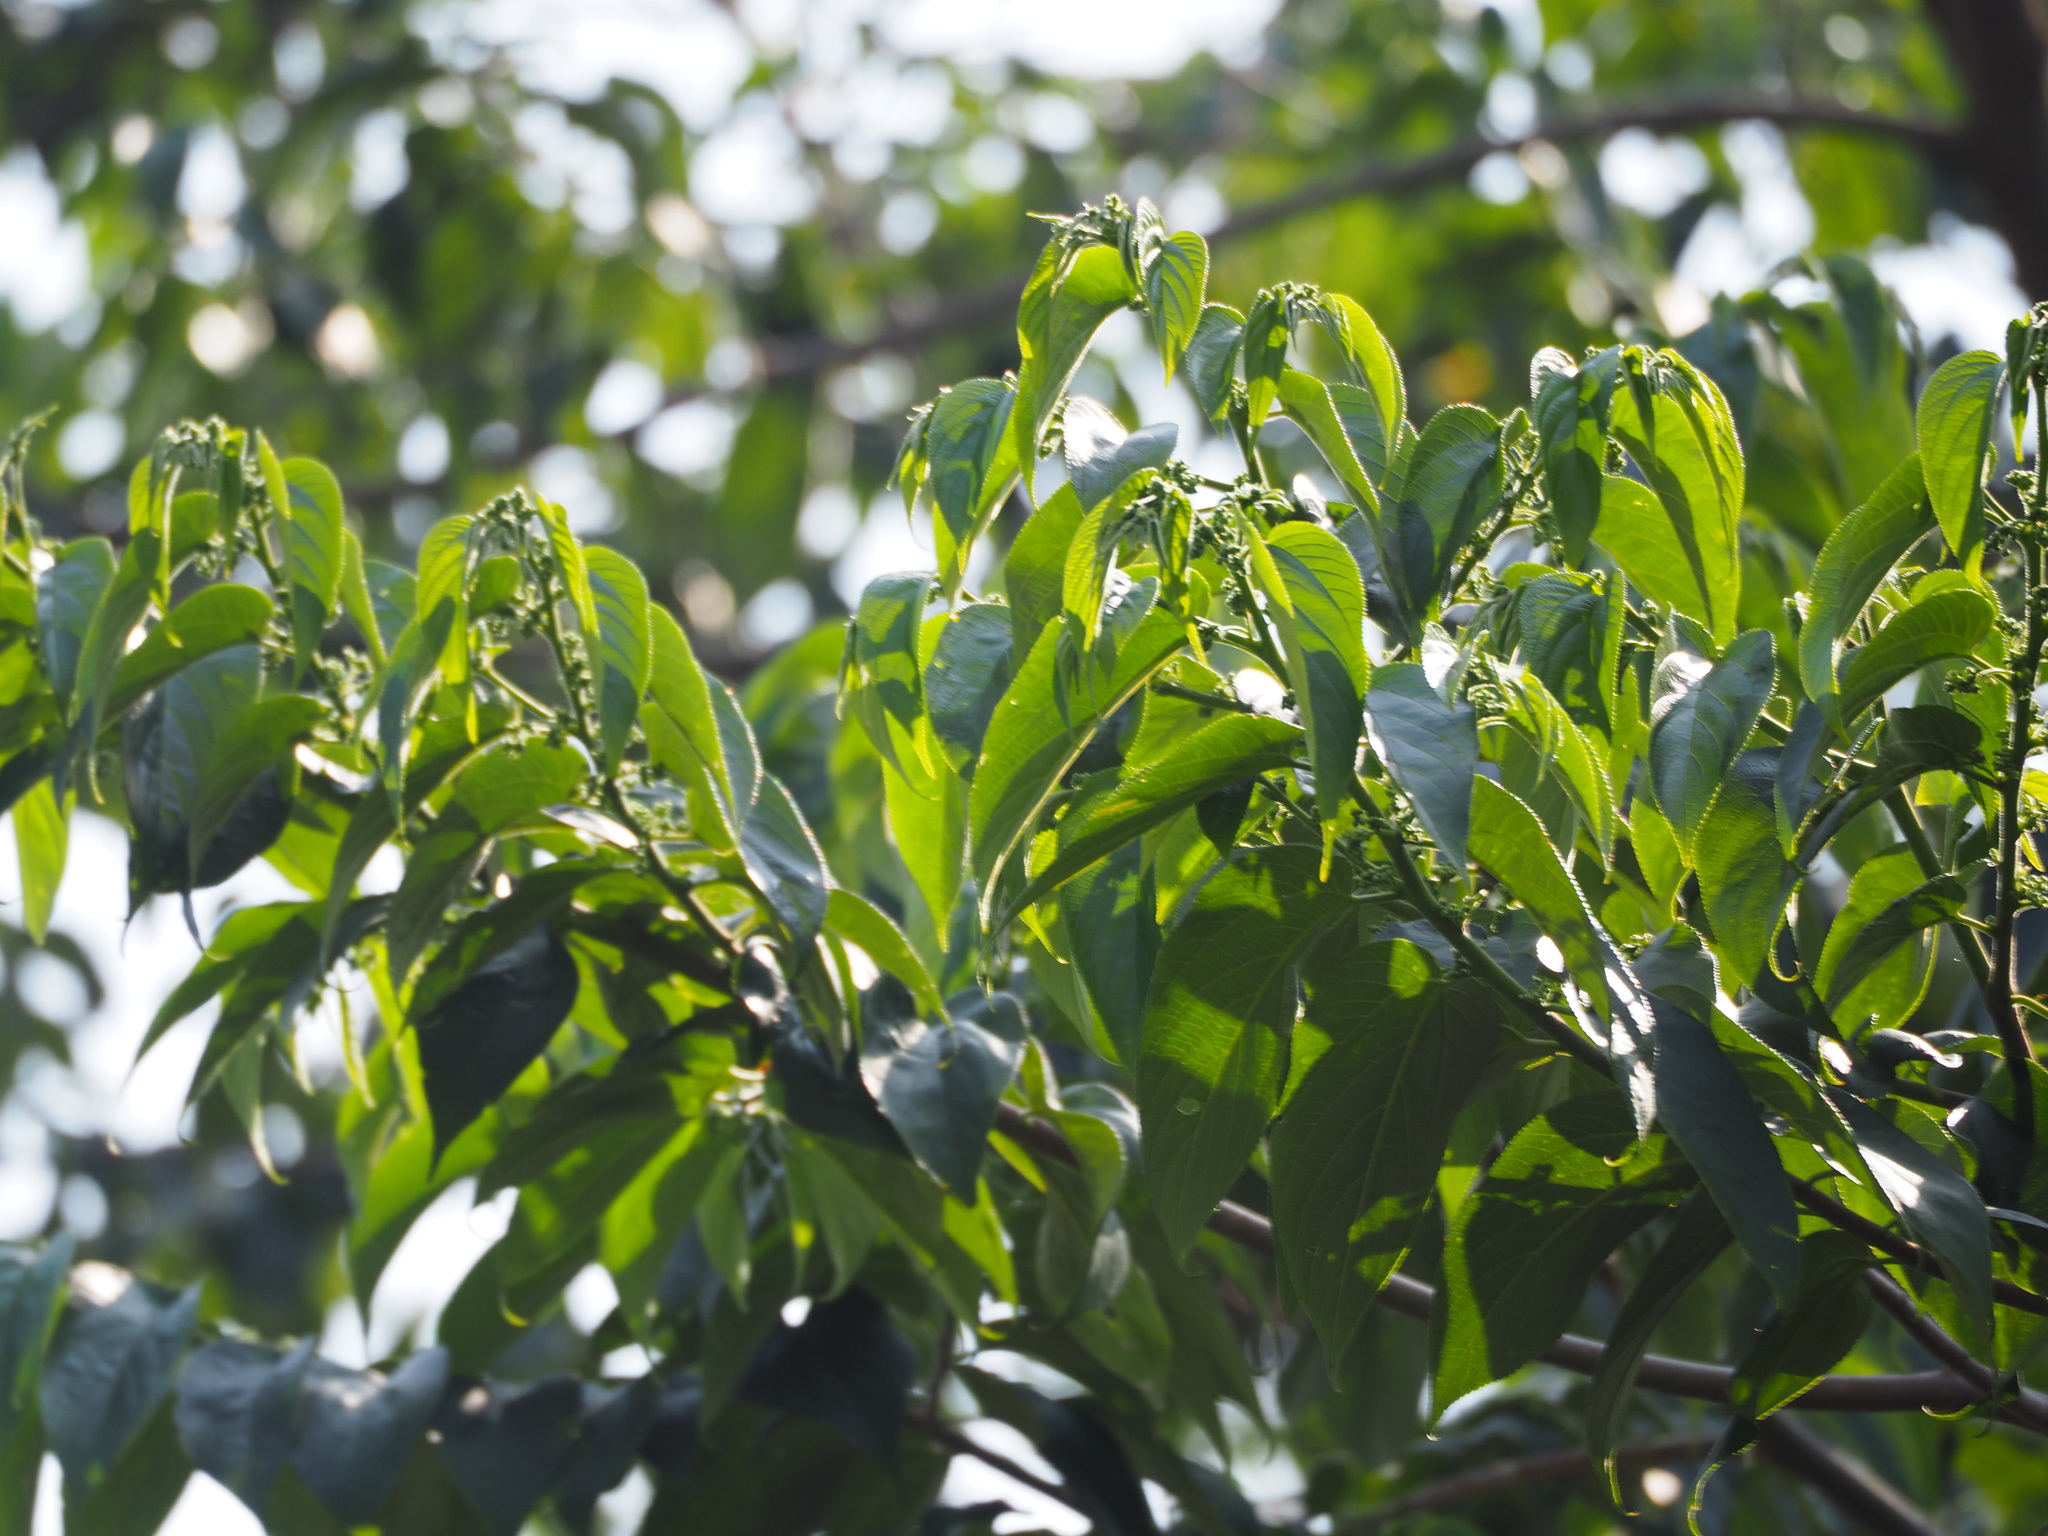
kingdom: Plantae
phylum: Tracheophyta
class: Magnoliopsida
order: Rosales
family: Cannabaceae
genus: Trema
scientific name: Trema orientale
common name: Indian charcoal tree
